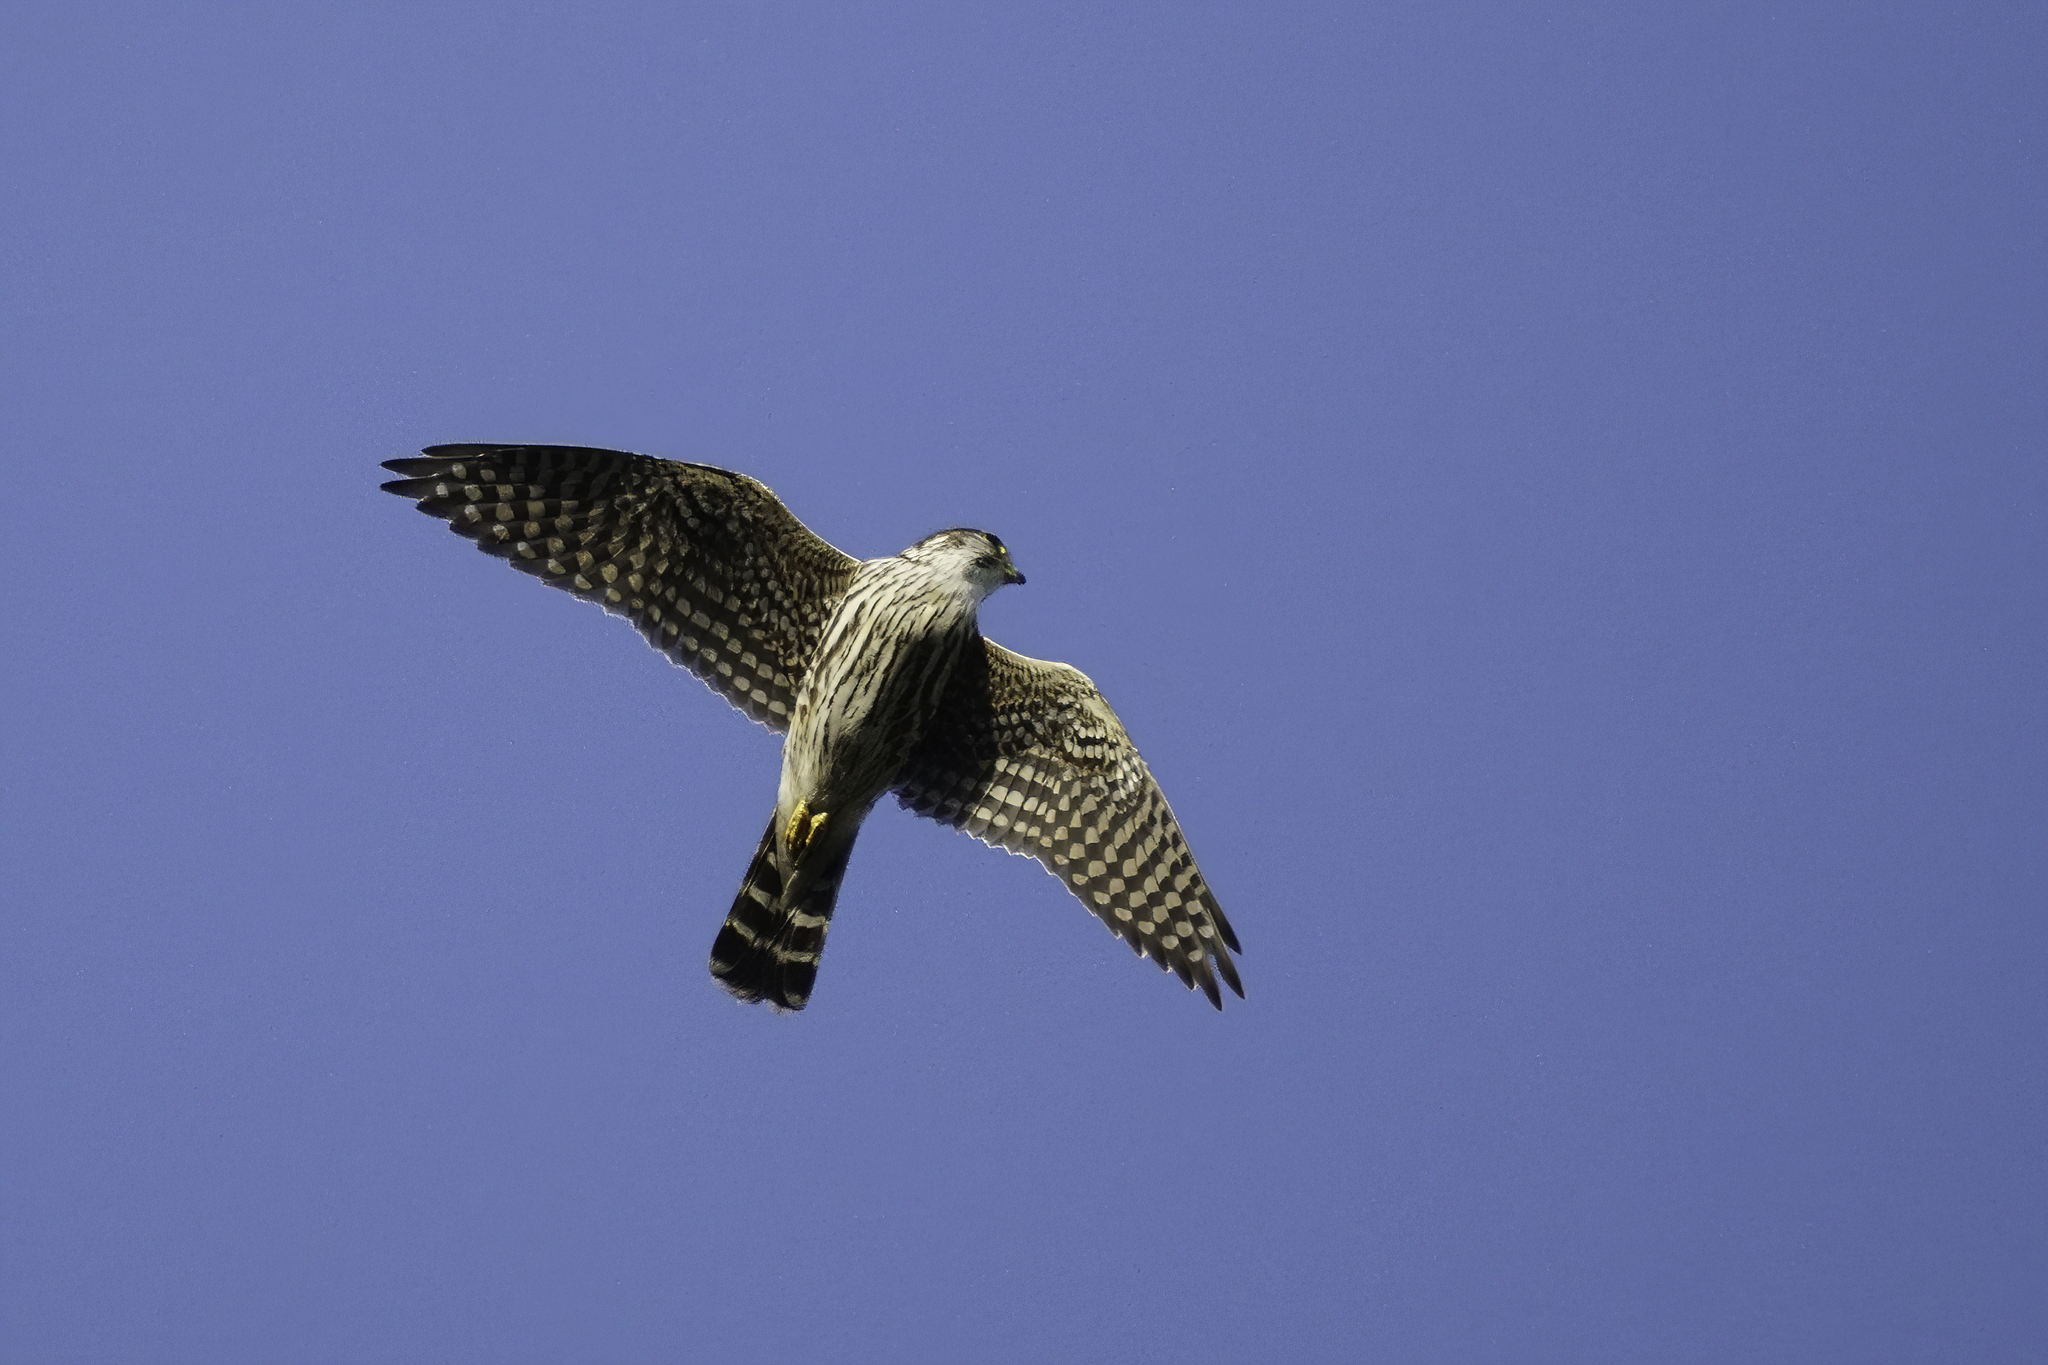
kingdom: Animalia
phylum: Chordata
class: Aves
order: Falconiformes
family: Falconidae
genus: Falco
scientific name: Falco columbarius
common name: Merlin
